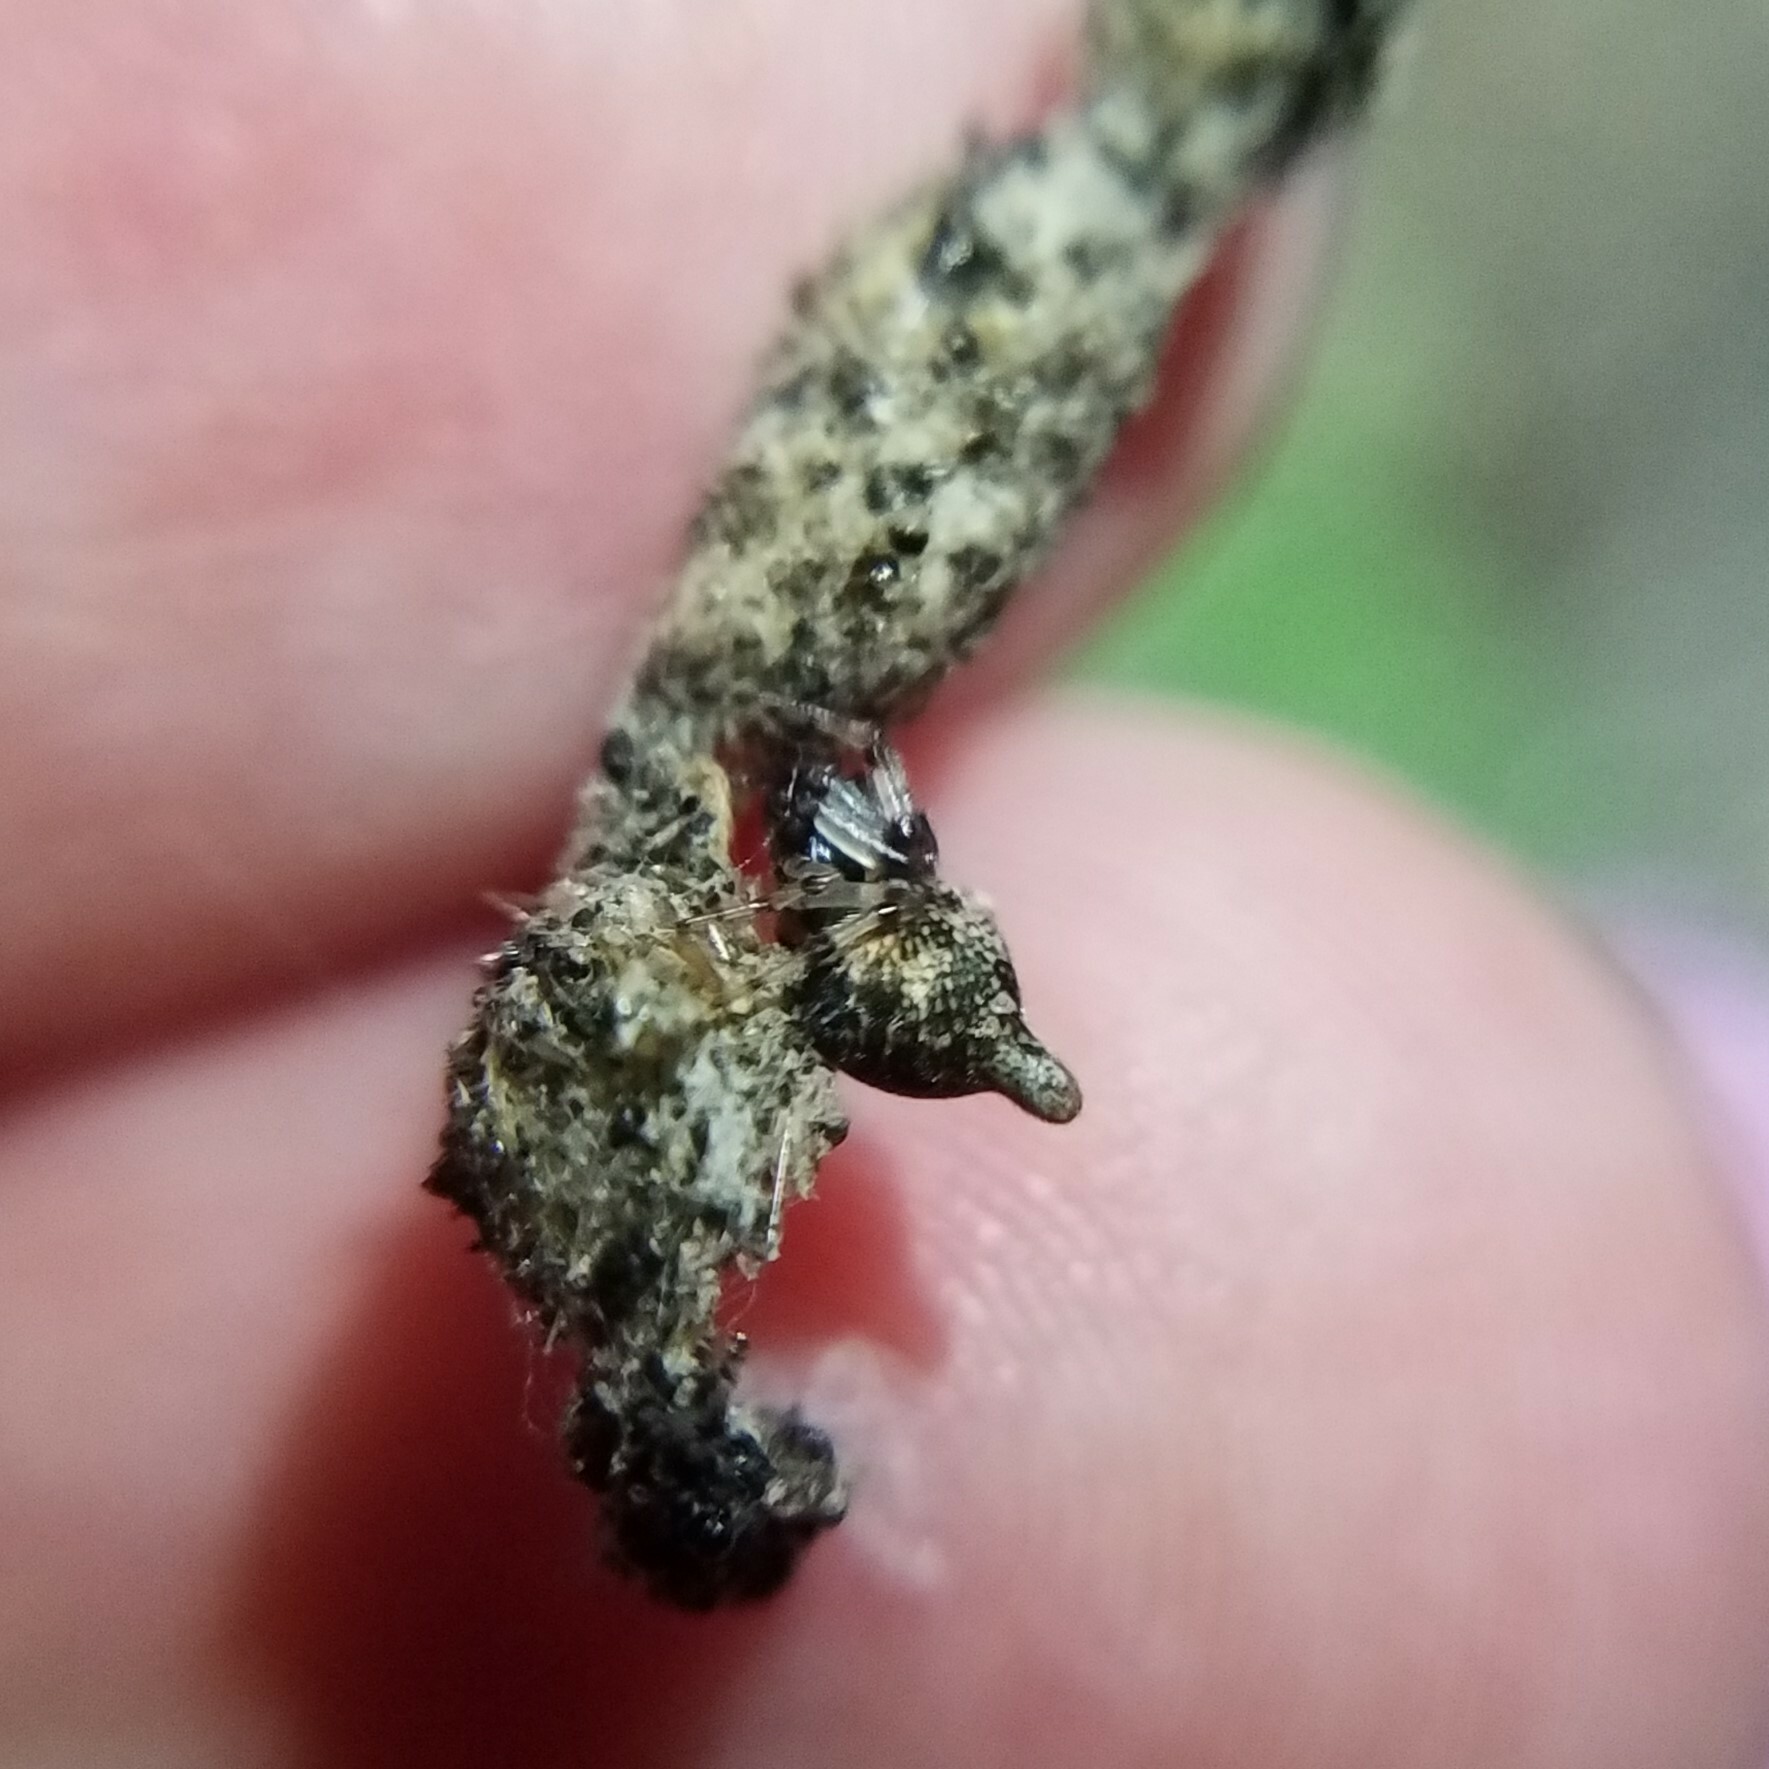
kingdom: Animalia
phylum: Arthropoda
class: Arachnida
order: Araneae
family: Araneidae
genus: Cyclosa
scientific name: Cyclosa turbinata
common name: Orb weavers
